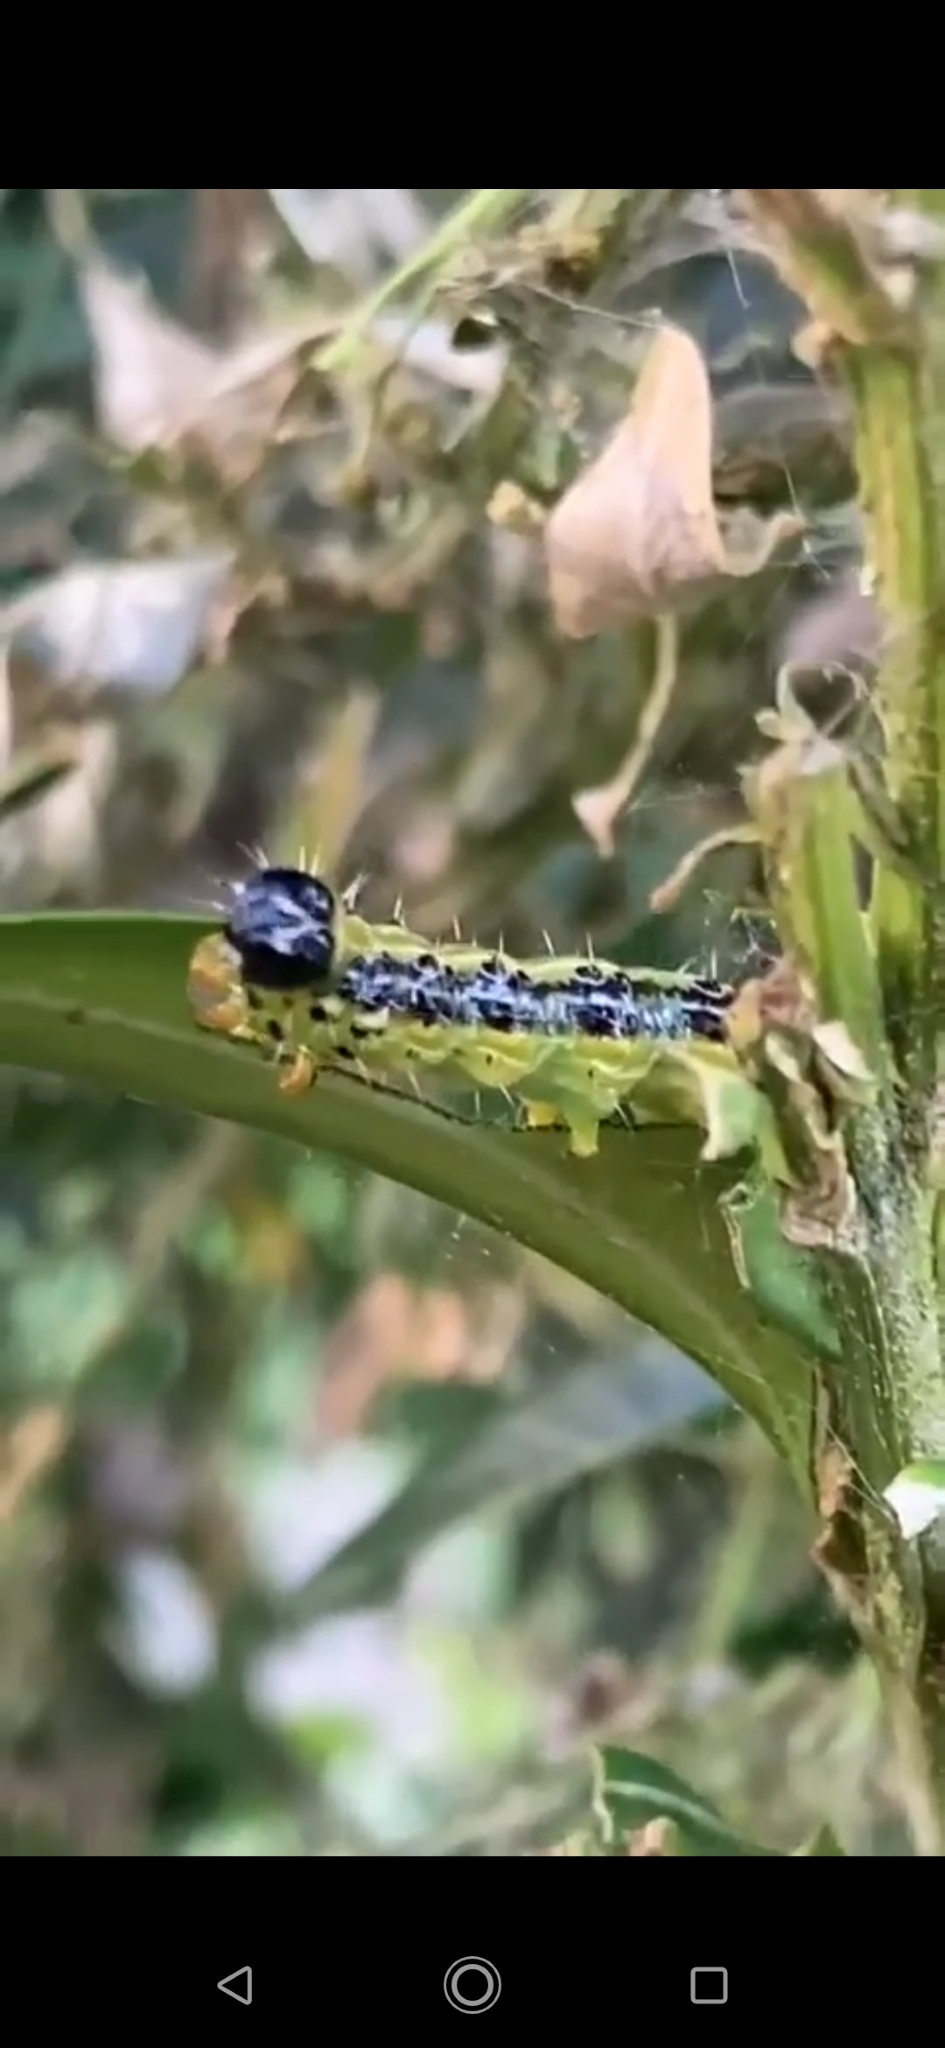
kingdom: Animalia
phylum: Arthropoda
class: Insecta
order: Lepidoptera
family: Crambidae
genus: Cydalima
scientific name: Cydalima perspectalis
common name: Box tree moth
